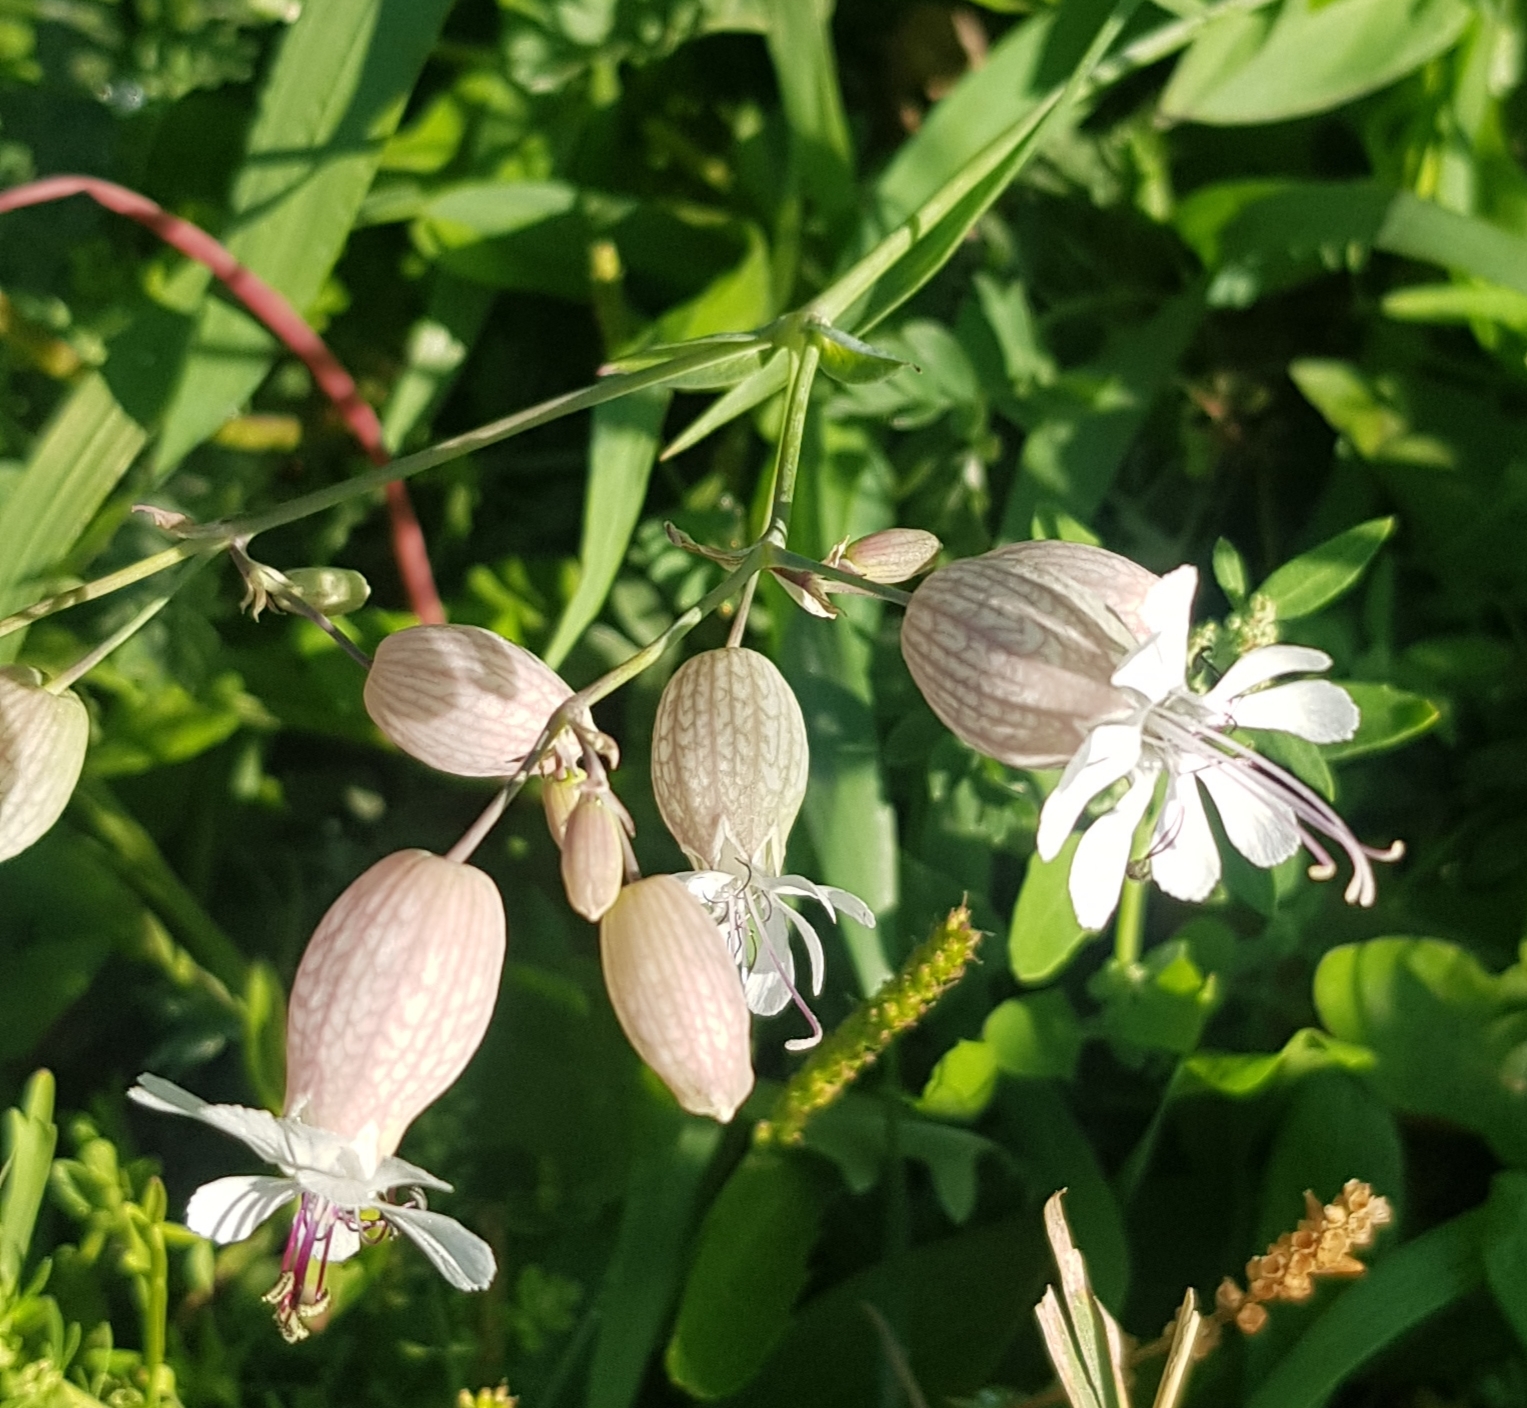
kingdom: Plantae
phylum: Tracheophyta
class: Magnoliopsida
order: Caryophyllales
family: Caryophyllaceae
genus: Silene
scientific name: Silene vulgaris
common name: Bladder campion
